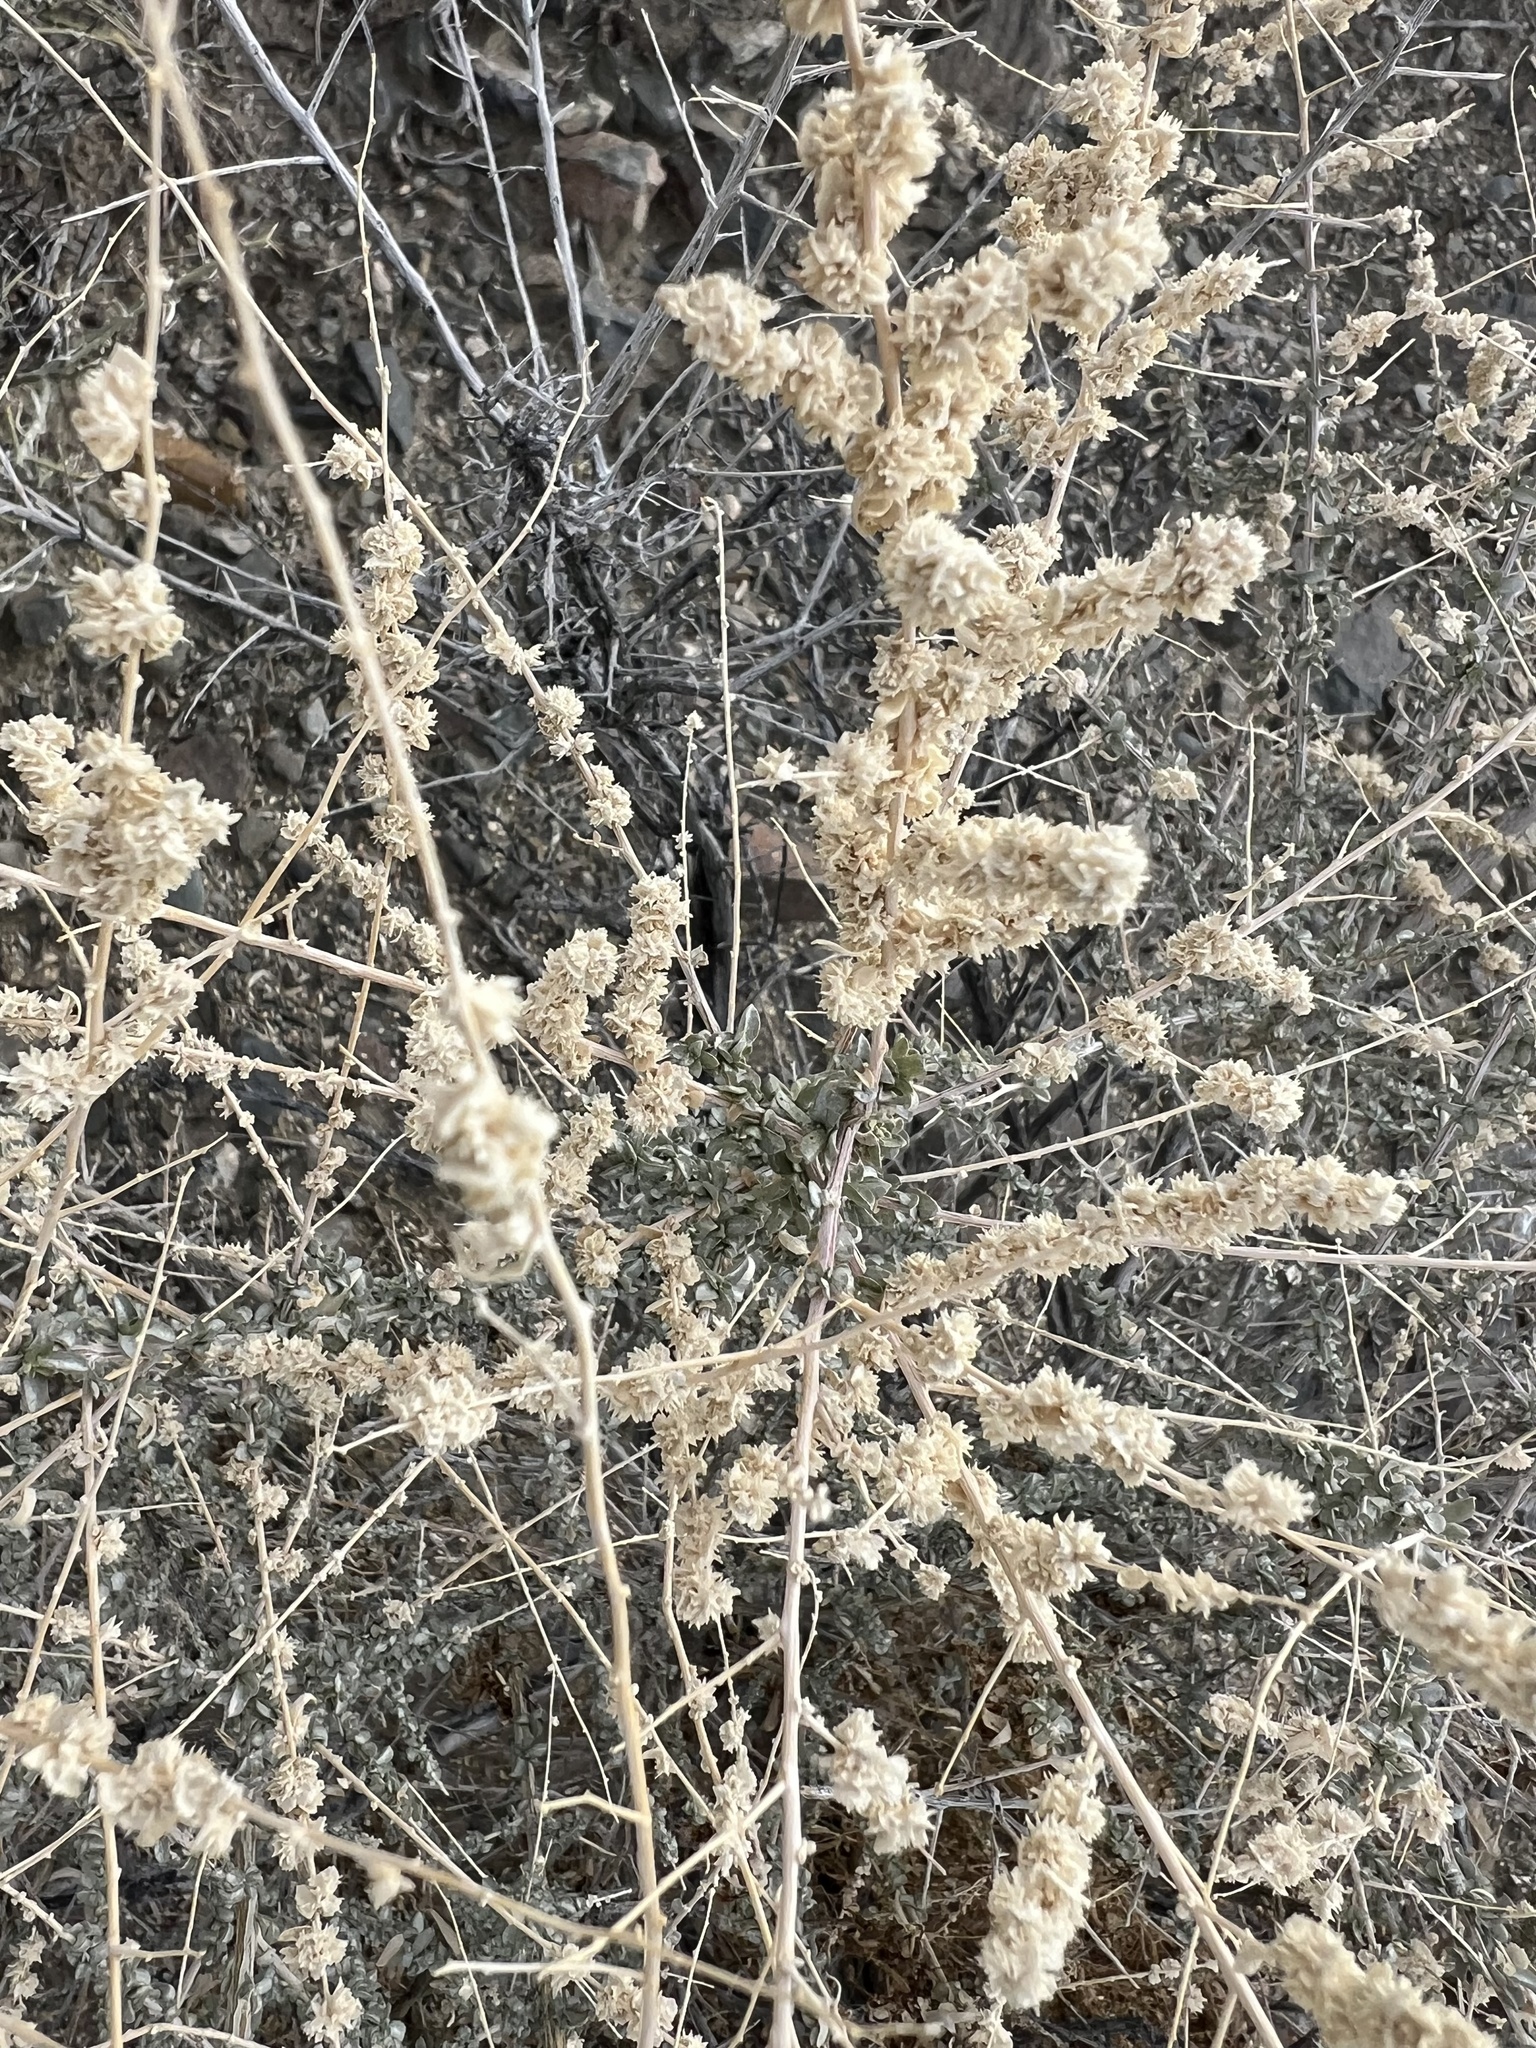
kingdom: Plantae
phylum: Tracheophyta
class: Magnoliopsida
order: Caryophyllales
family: Amaranthaceae
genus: Atriplex
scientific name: Atriplex polycarpa
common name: Desert saltbush
